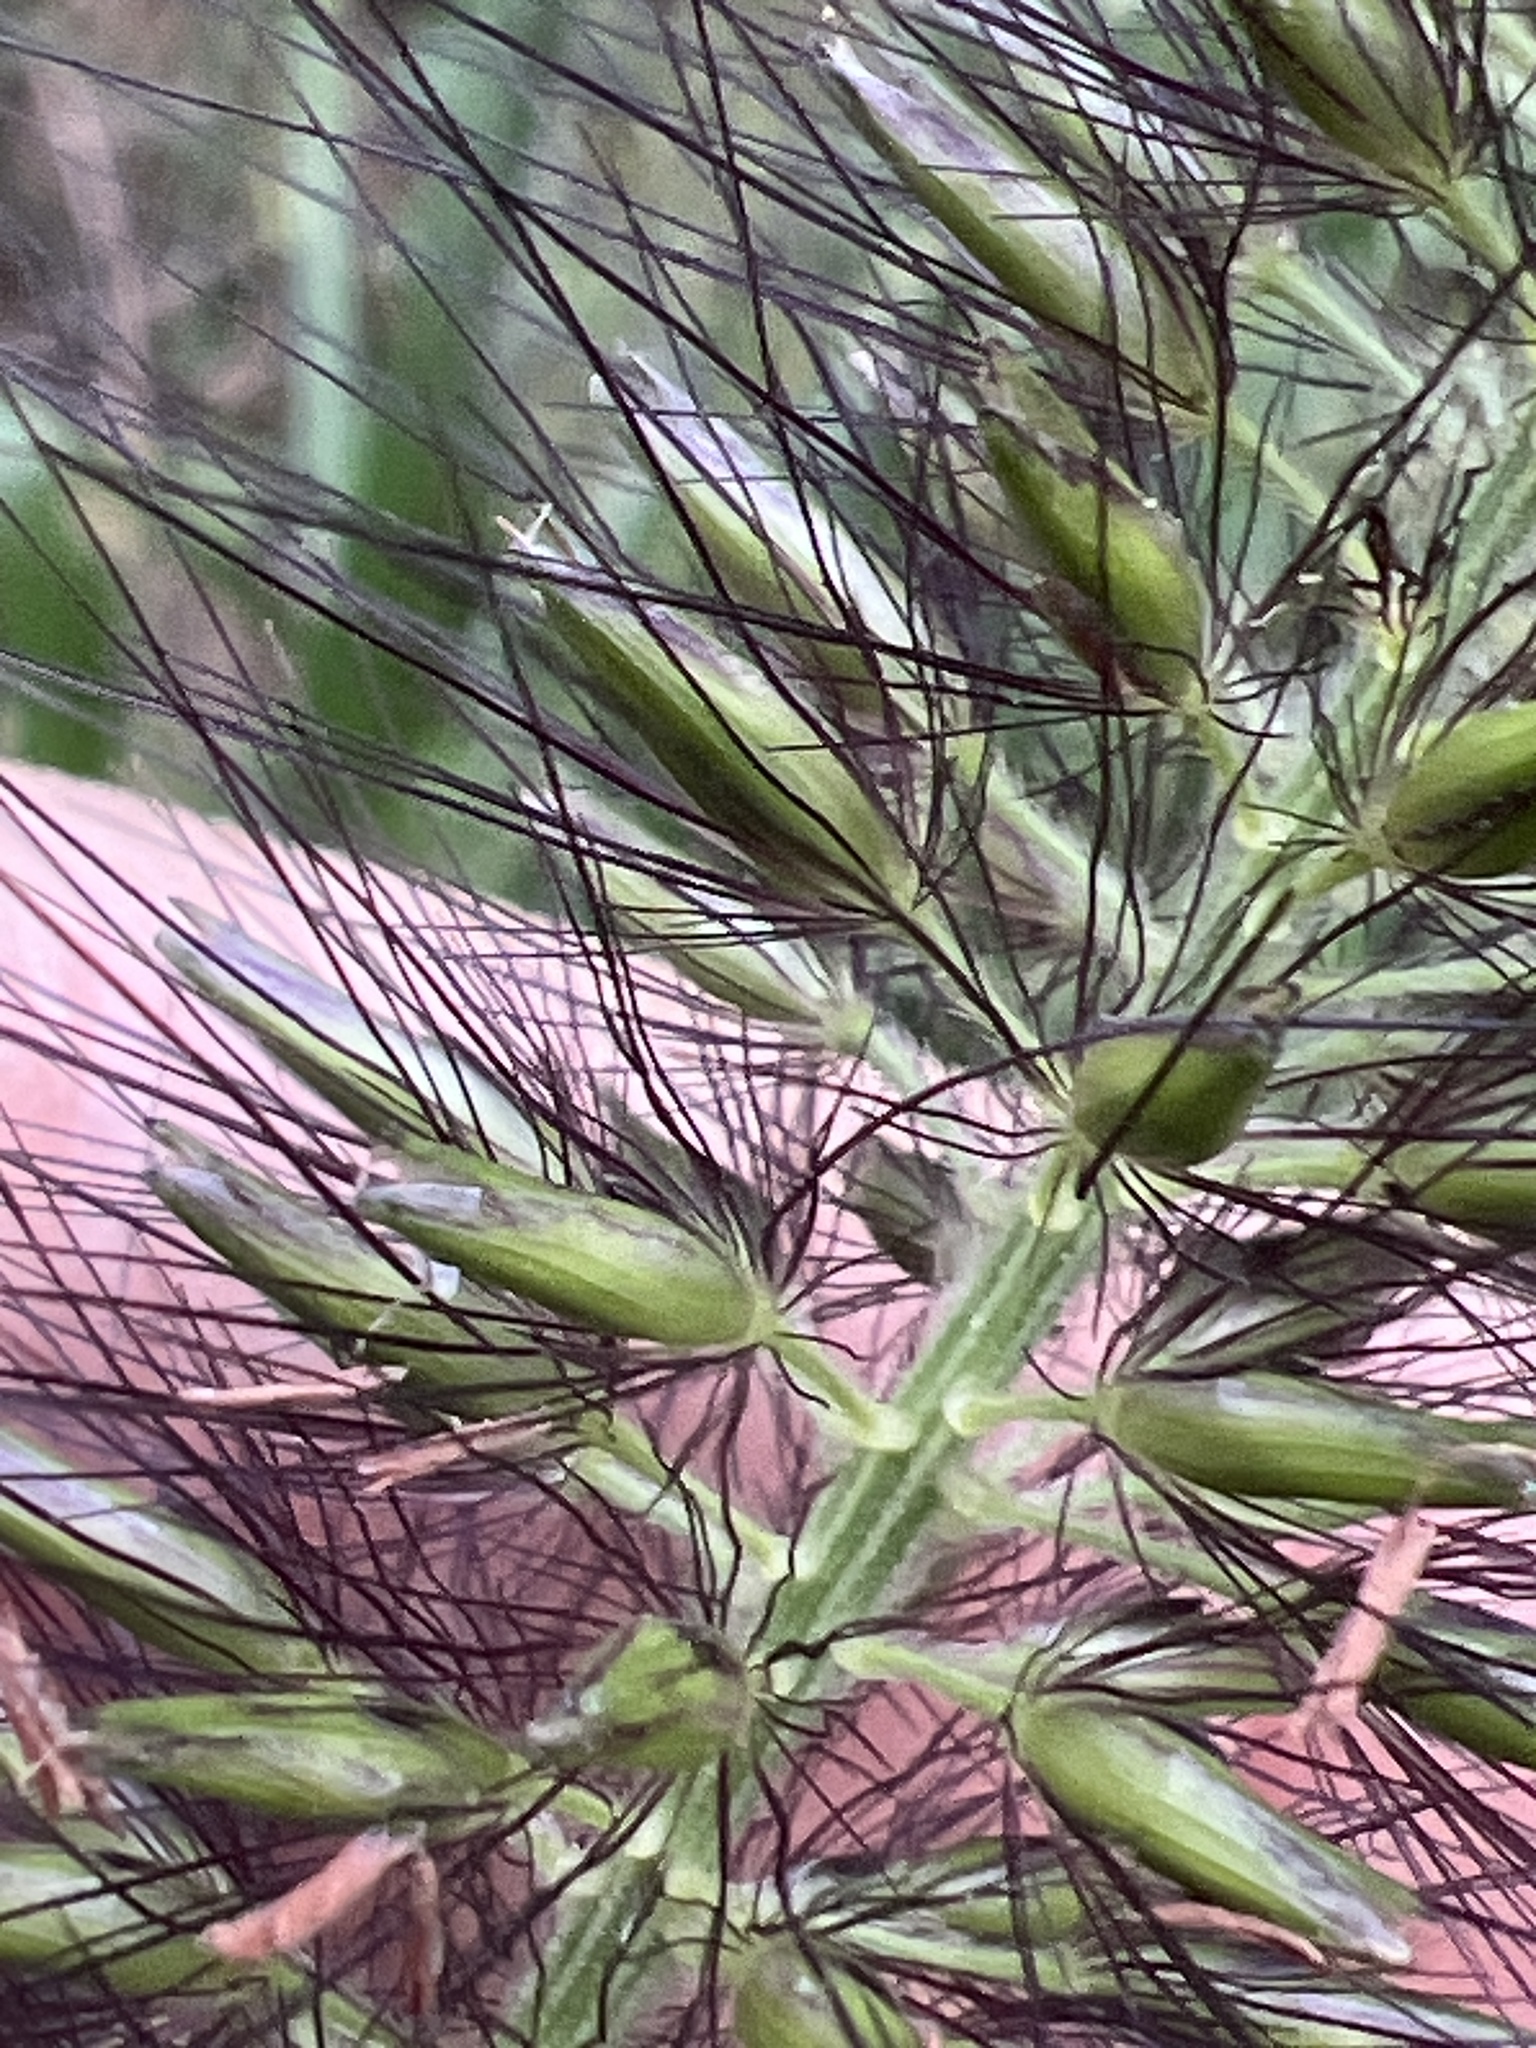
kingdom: Plantae
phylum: Tracheophyta
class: Liliopsida
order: Poales
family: Poaceae
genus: Cenchrus
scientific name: Cenchrus alopecuroides
